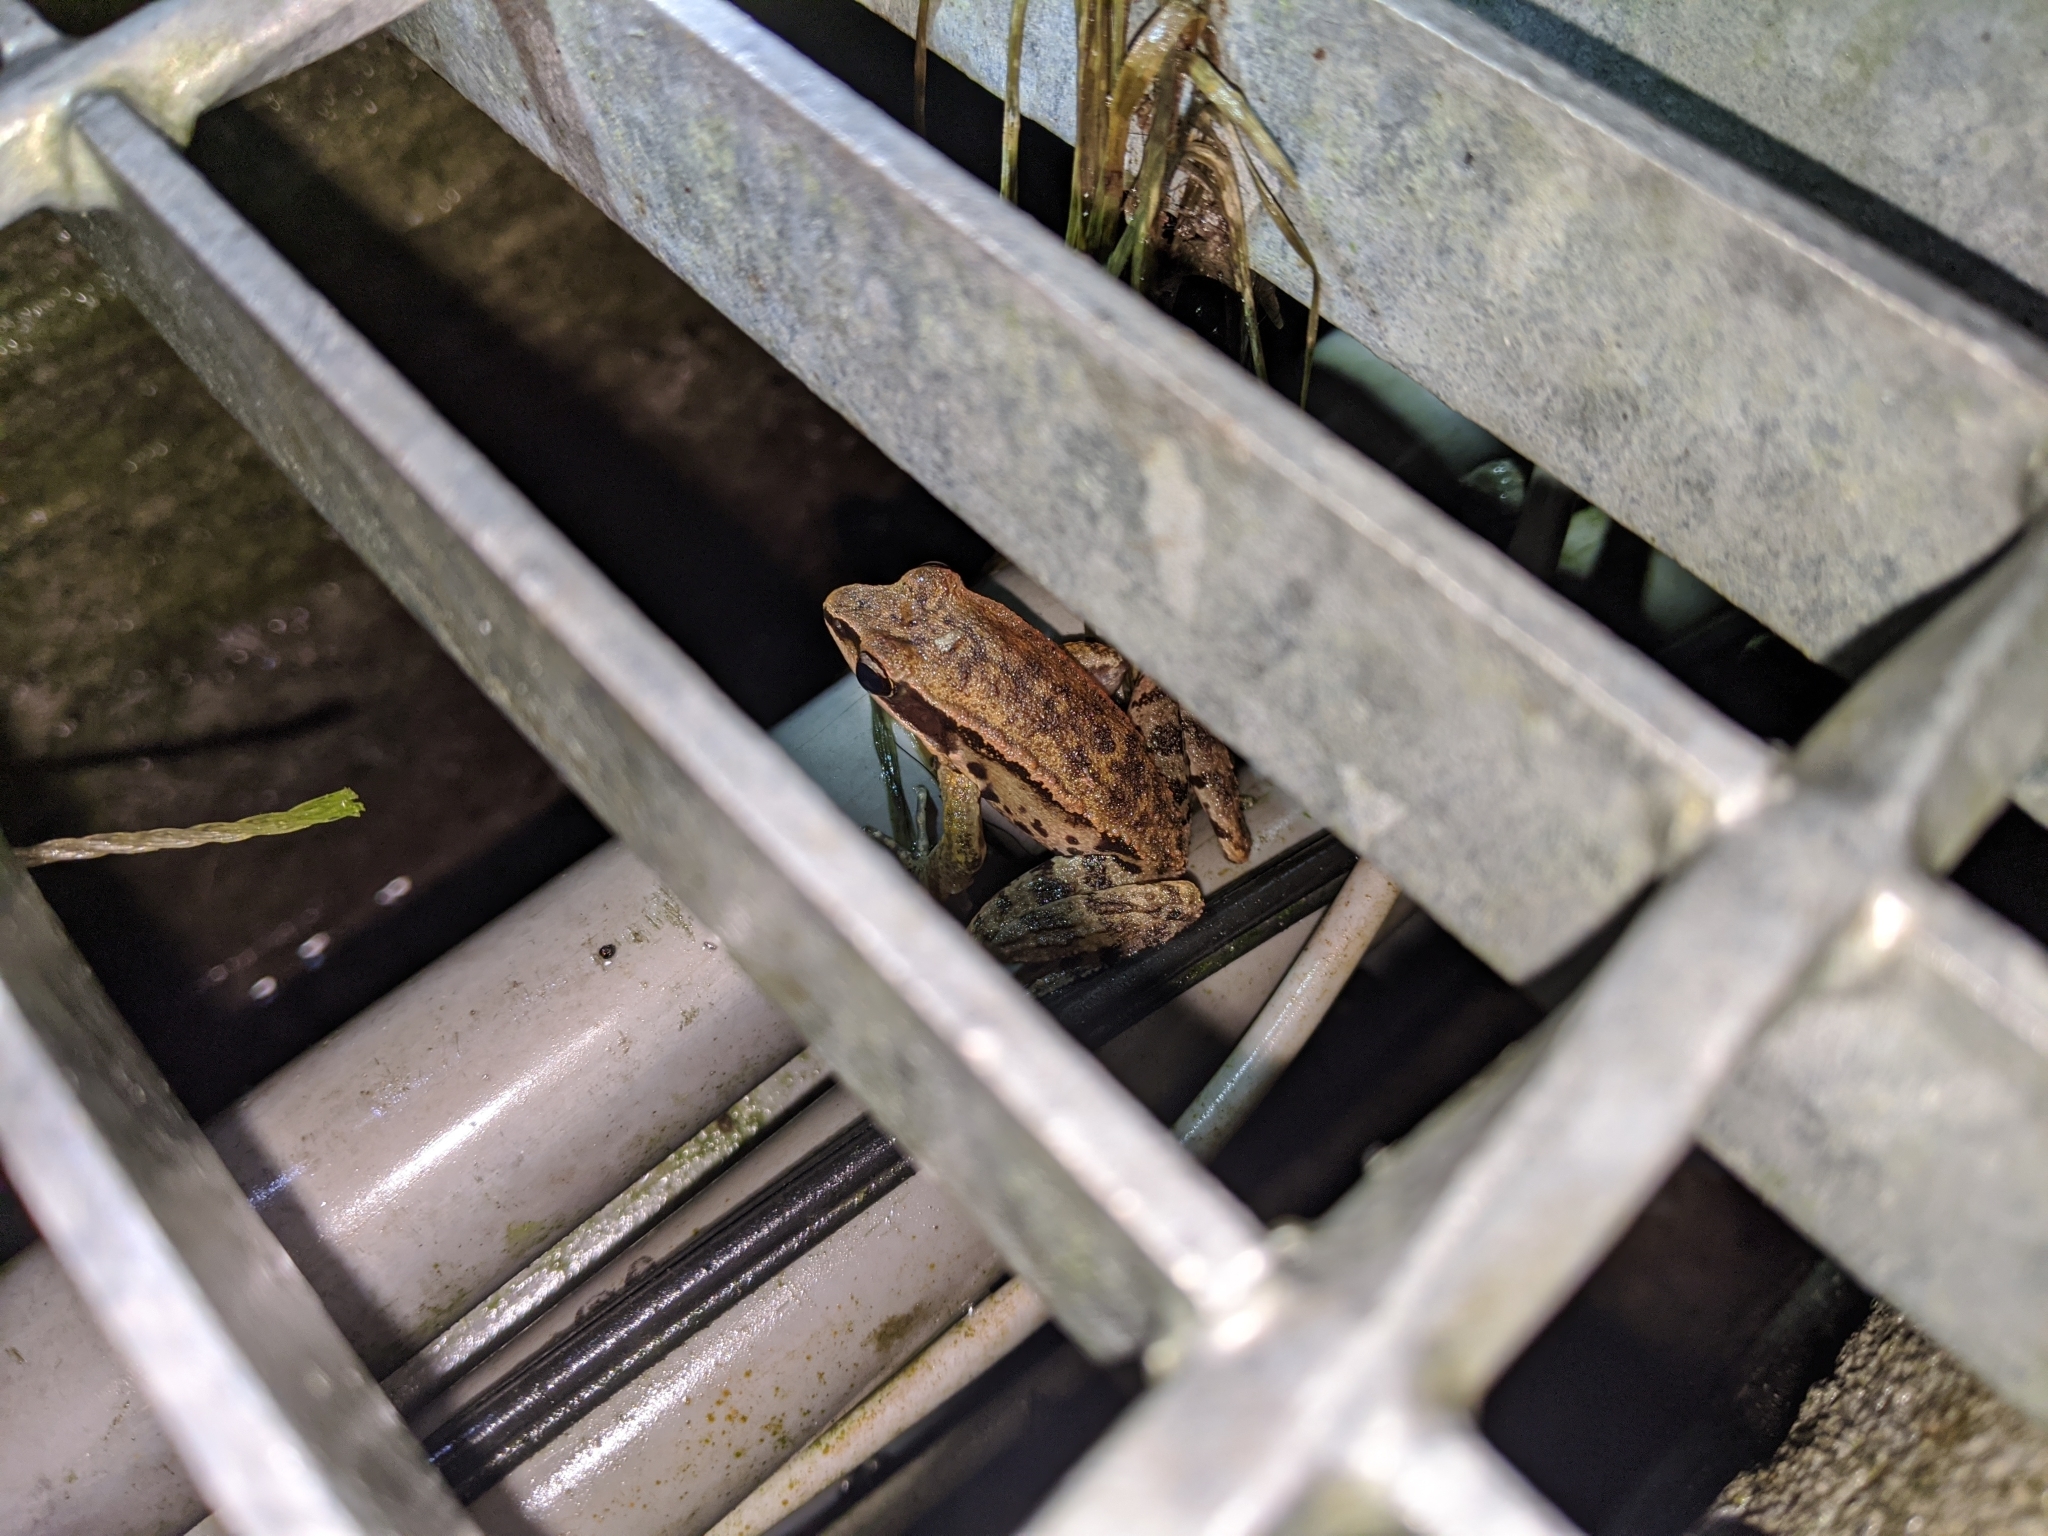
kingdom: Animalia
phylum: Chordata
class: Amphibia
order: Anura
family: Ranidae
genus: Hylarana
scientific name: Hylarana latouchii
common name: Broad-folded frog
